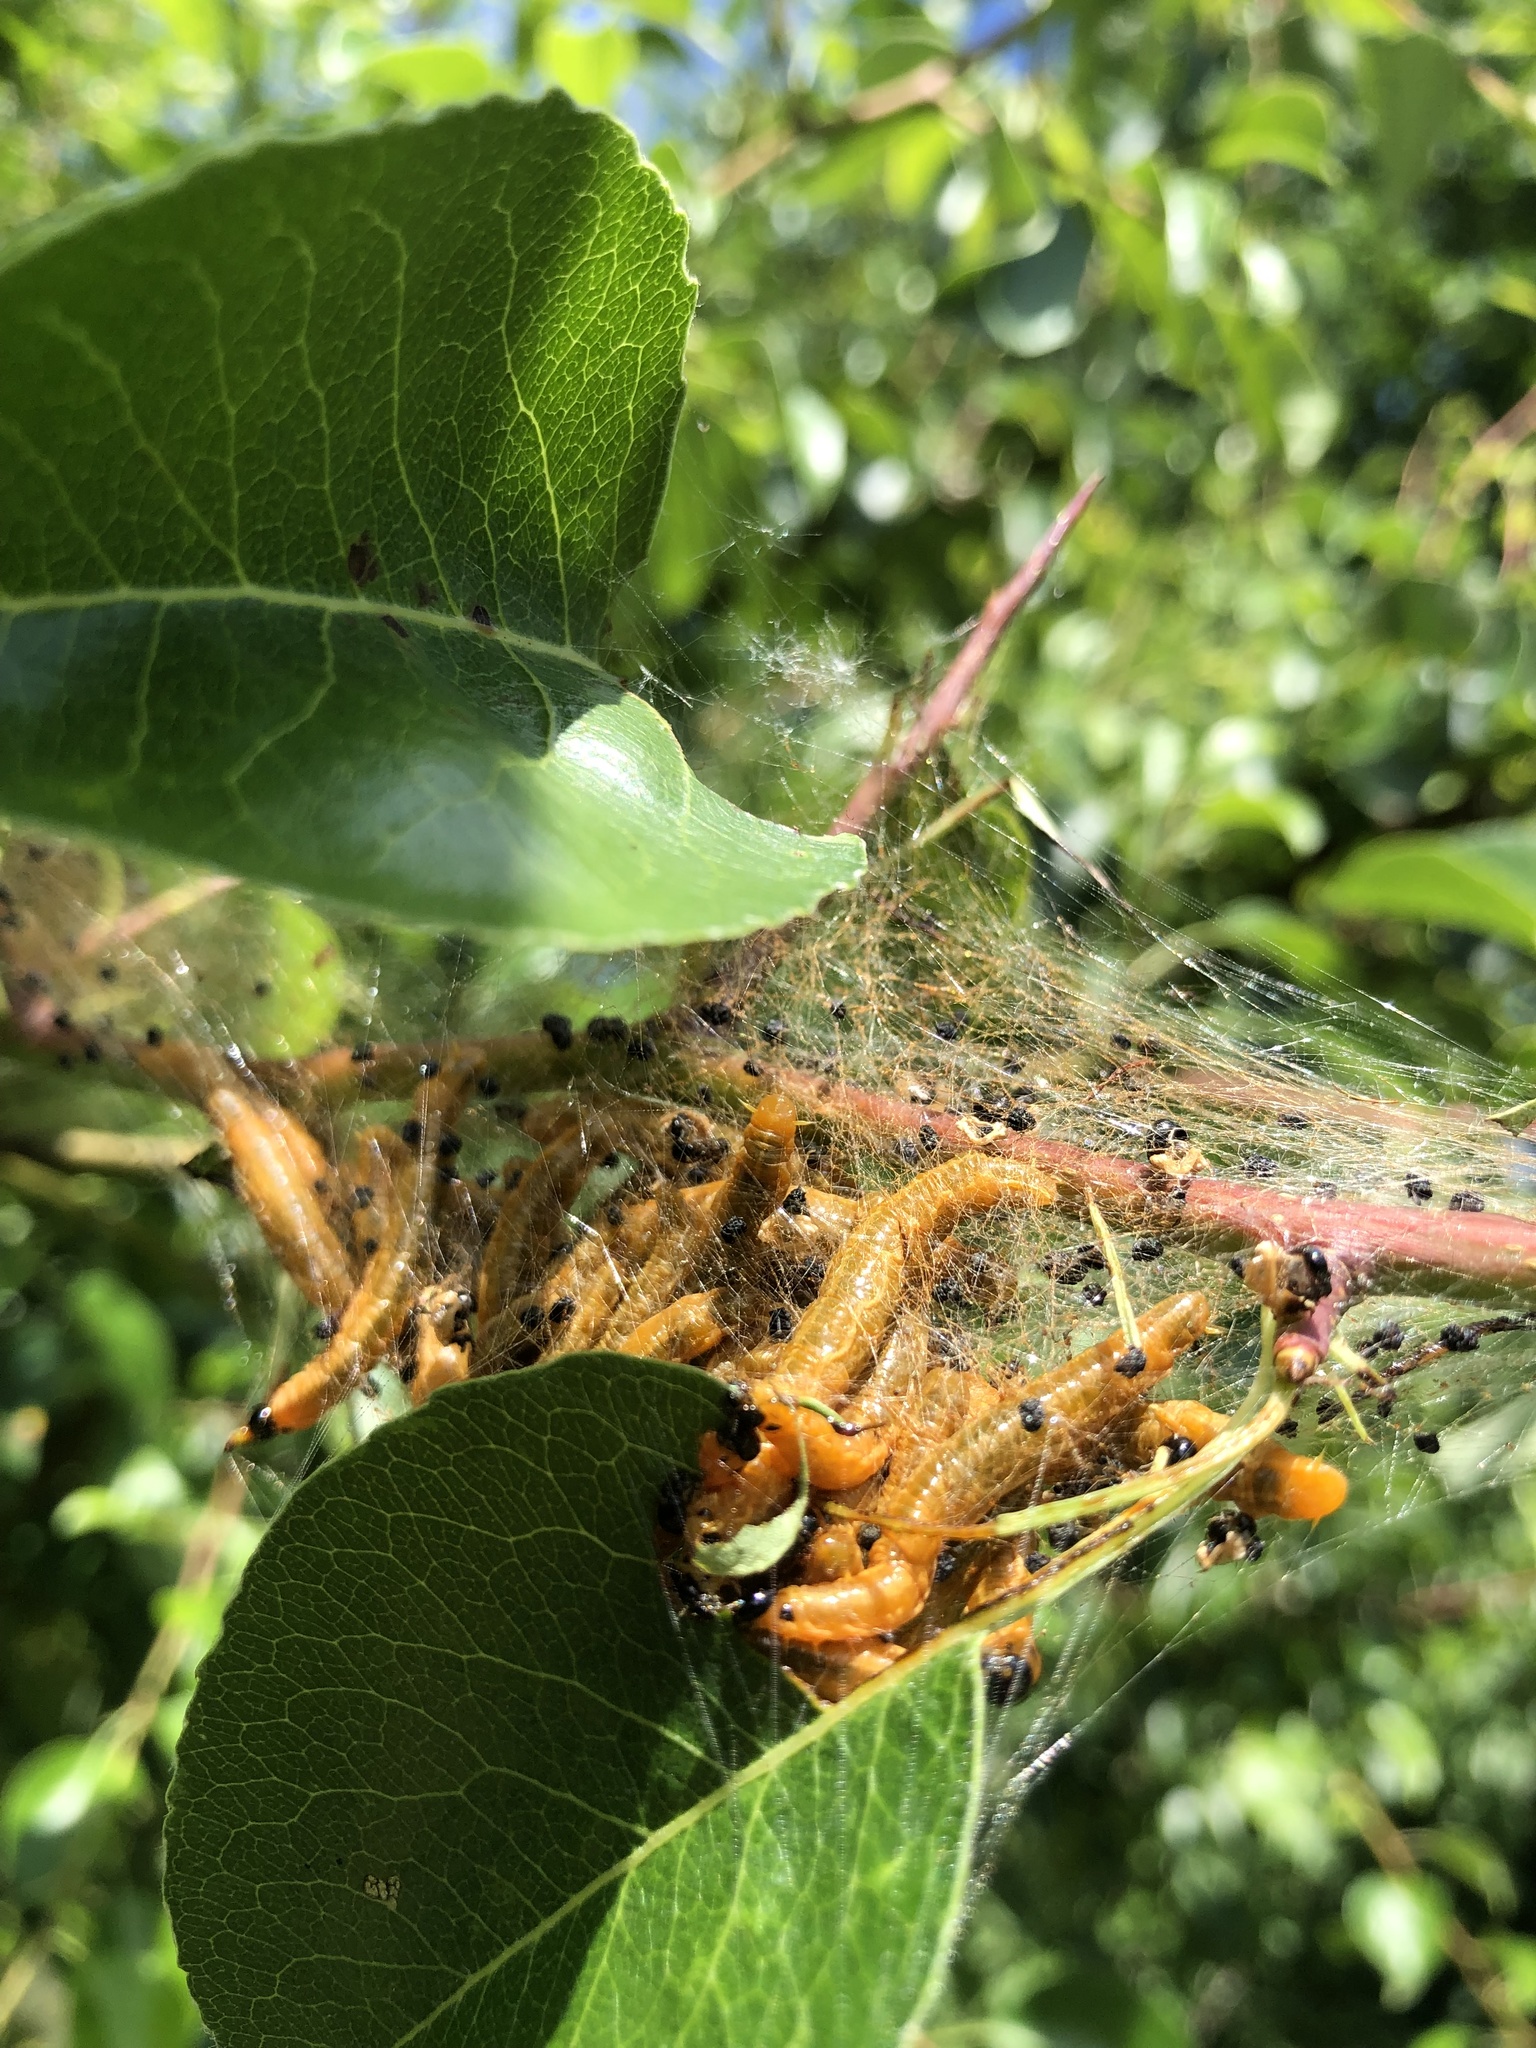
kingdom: Animalia
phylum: Arthropoda
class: Insecta
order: Hymenoptera
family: Pamphiliidae
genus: Neurotoma
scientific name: Neurotoma saltuum
